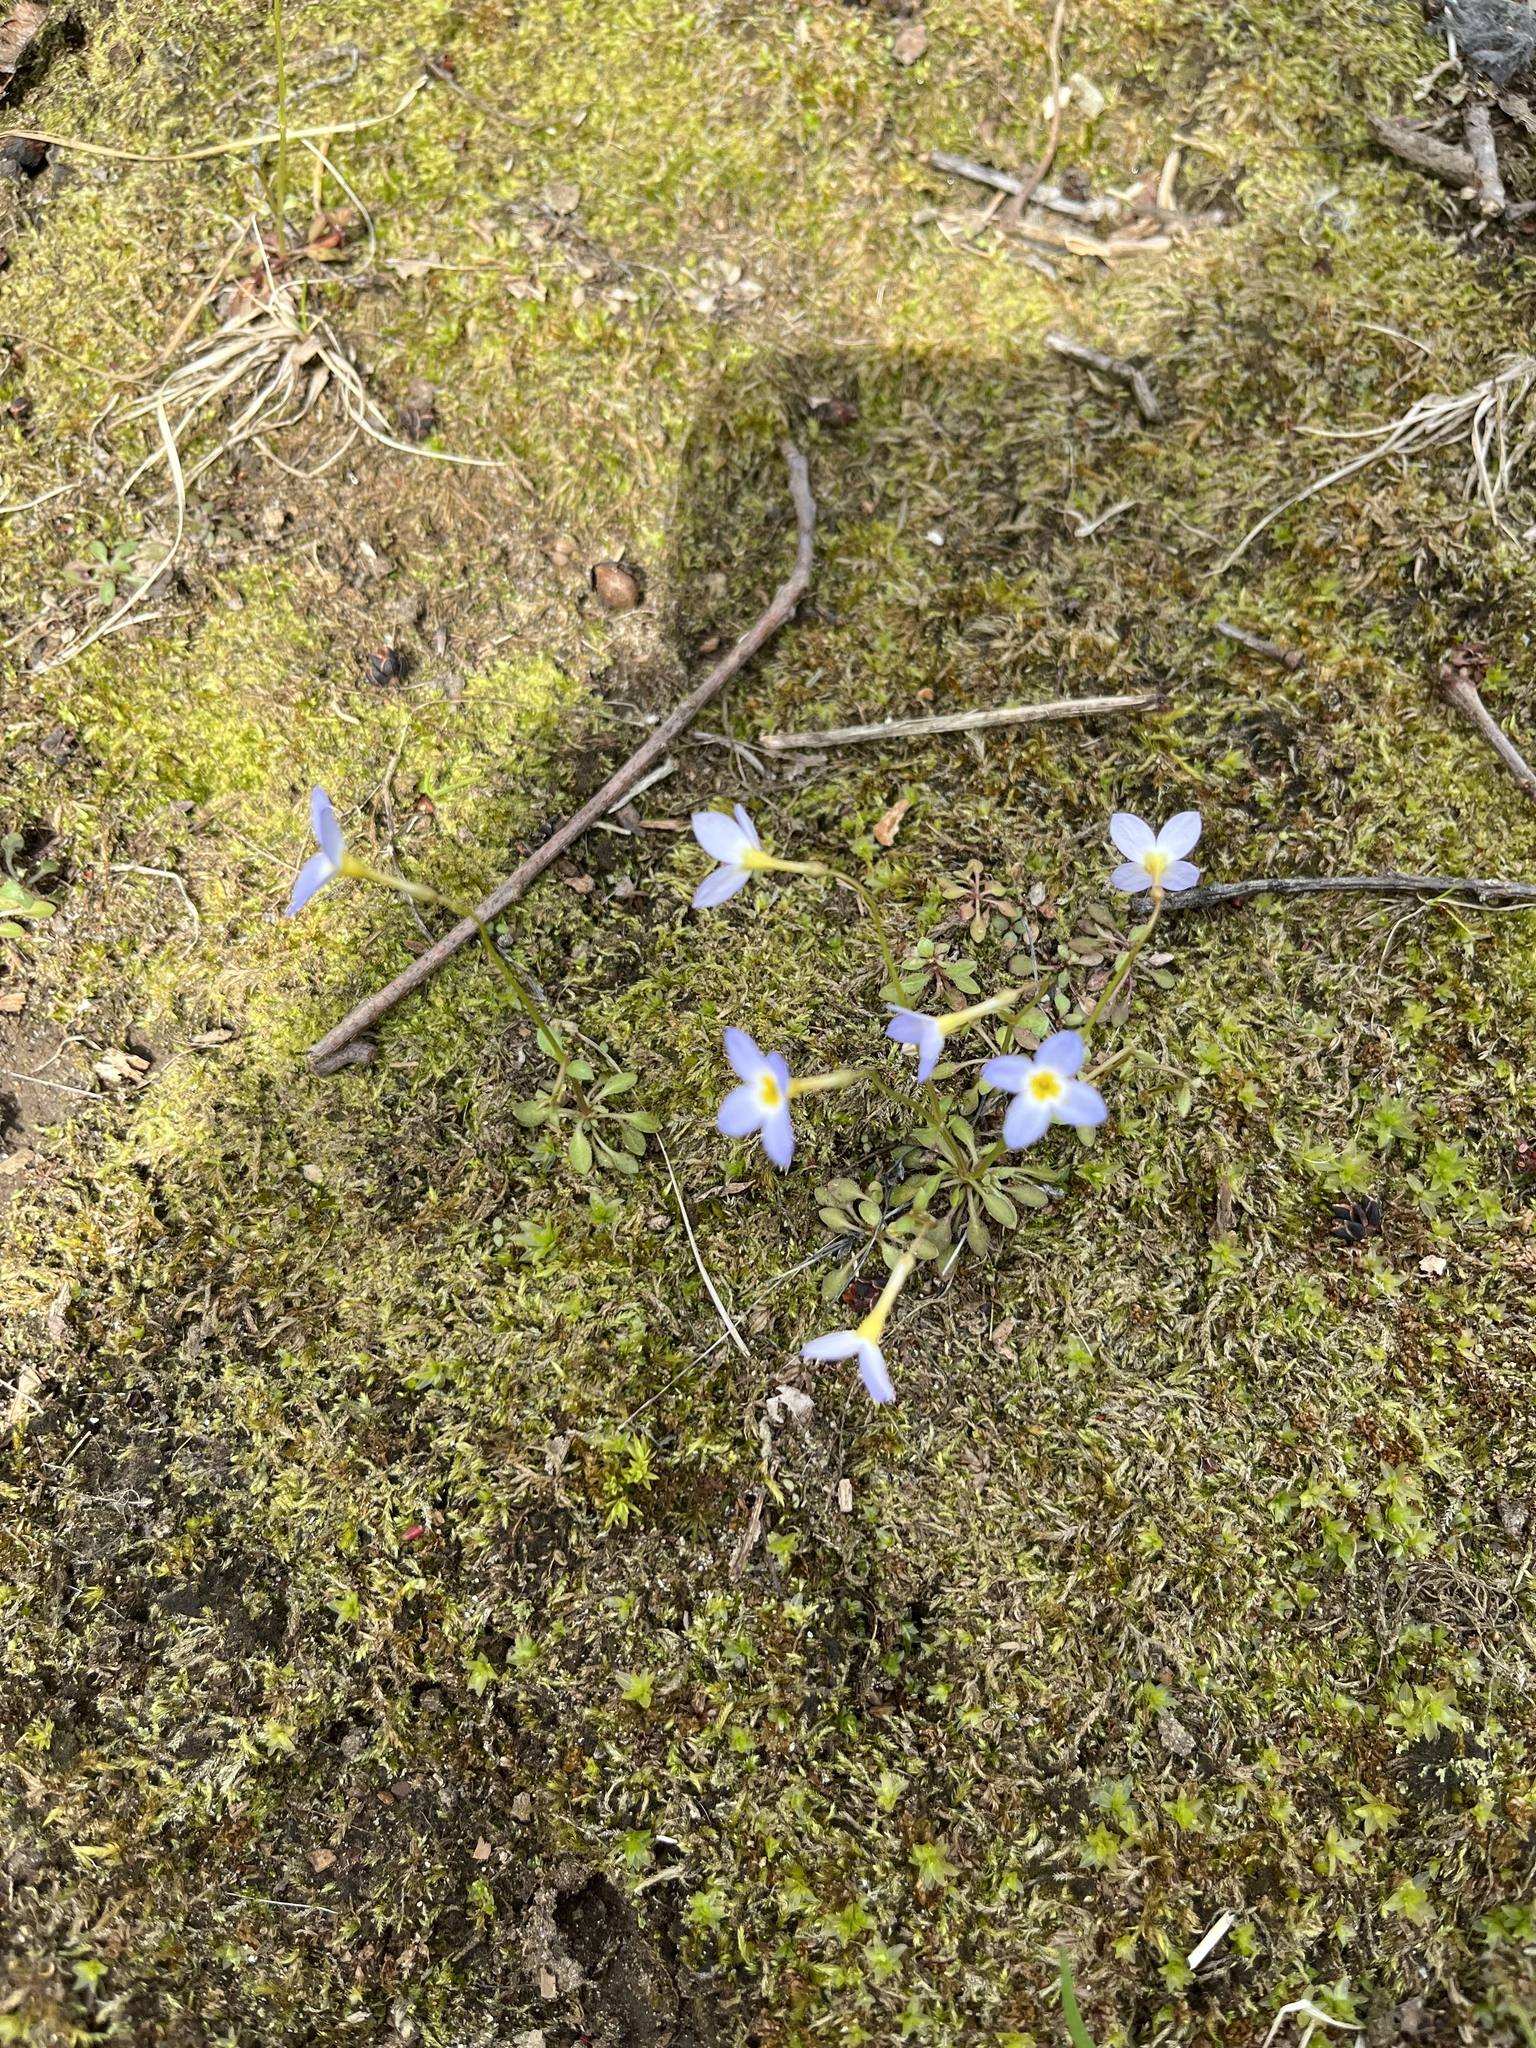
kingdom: Plantae
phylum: Tracheophyta
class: Magnoliopsida
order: Gentianales
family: Rubiaceae
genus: Houstonia
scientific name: Houstonia caerulea
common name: Bluets
